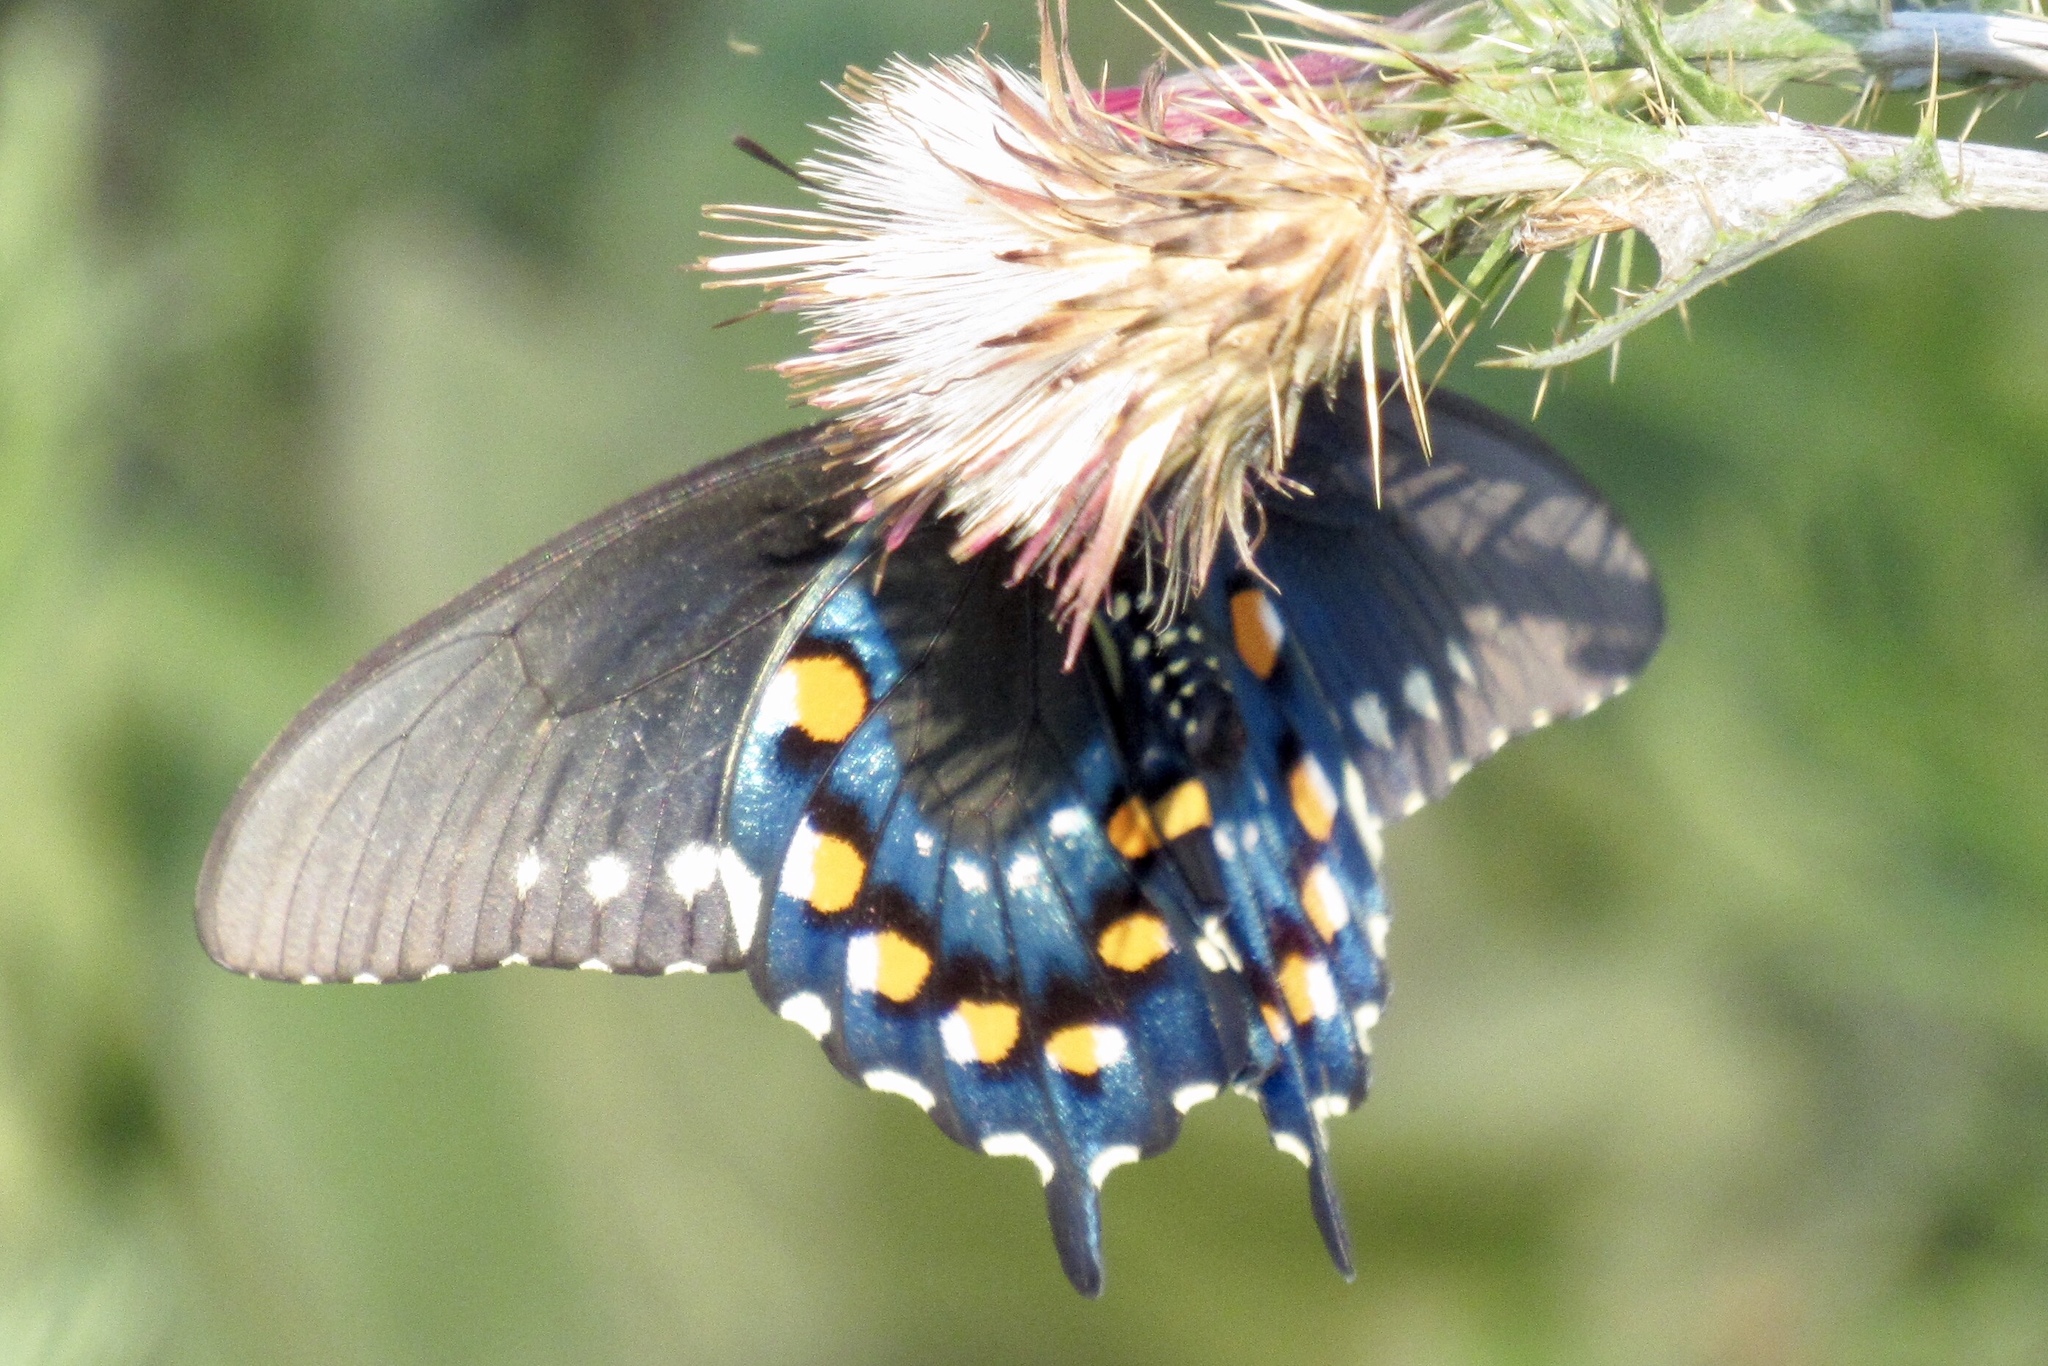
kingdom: Animalia
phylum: Arthropoda
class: Insecta
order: Lepidoptera
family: Papilionidae
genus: Battus
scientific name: Battus philenor
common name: Pipevine swallowtail
